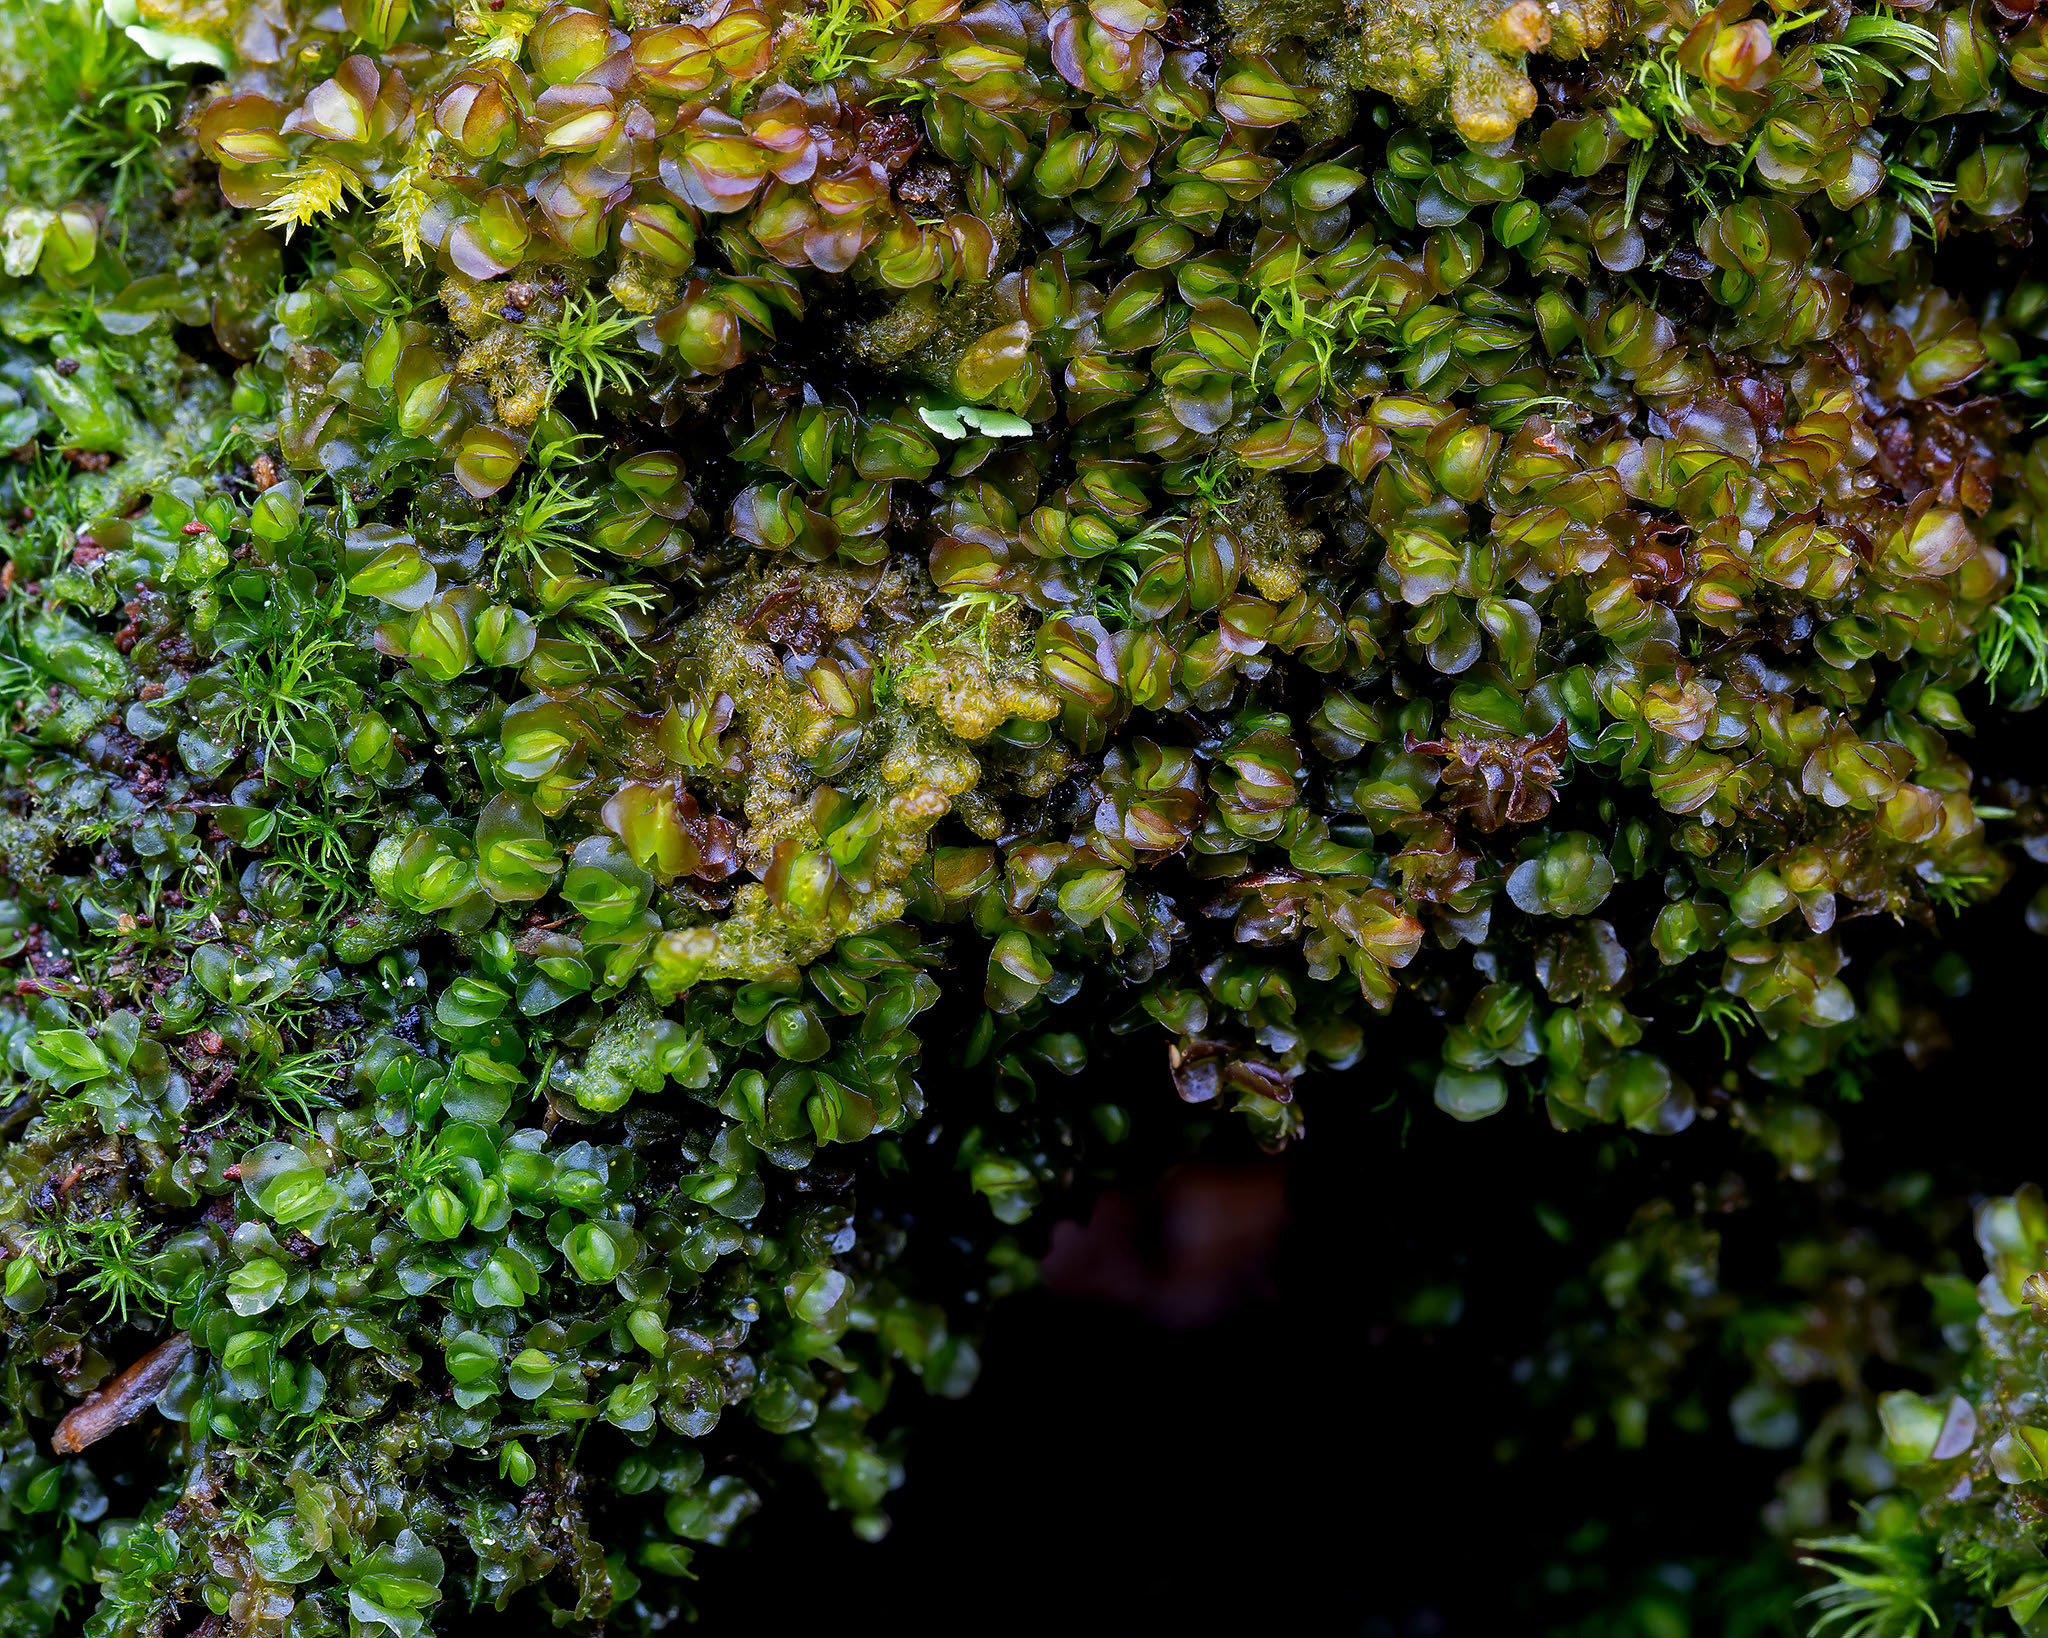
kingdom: Plantae
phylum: Marchantiophyta
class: Jungermanniopsida
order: Jungermanniales
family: Adelanthaceae
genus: Syzygiella
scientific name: Syzygiella autumnalis
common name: Jameson's liverwort
